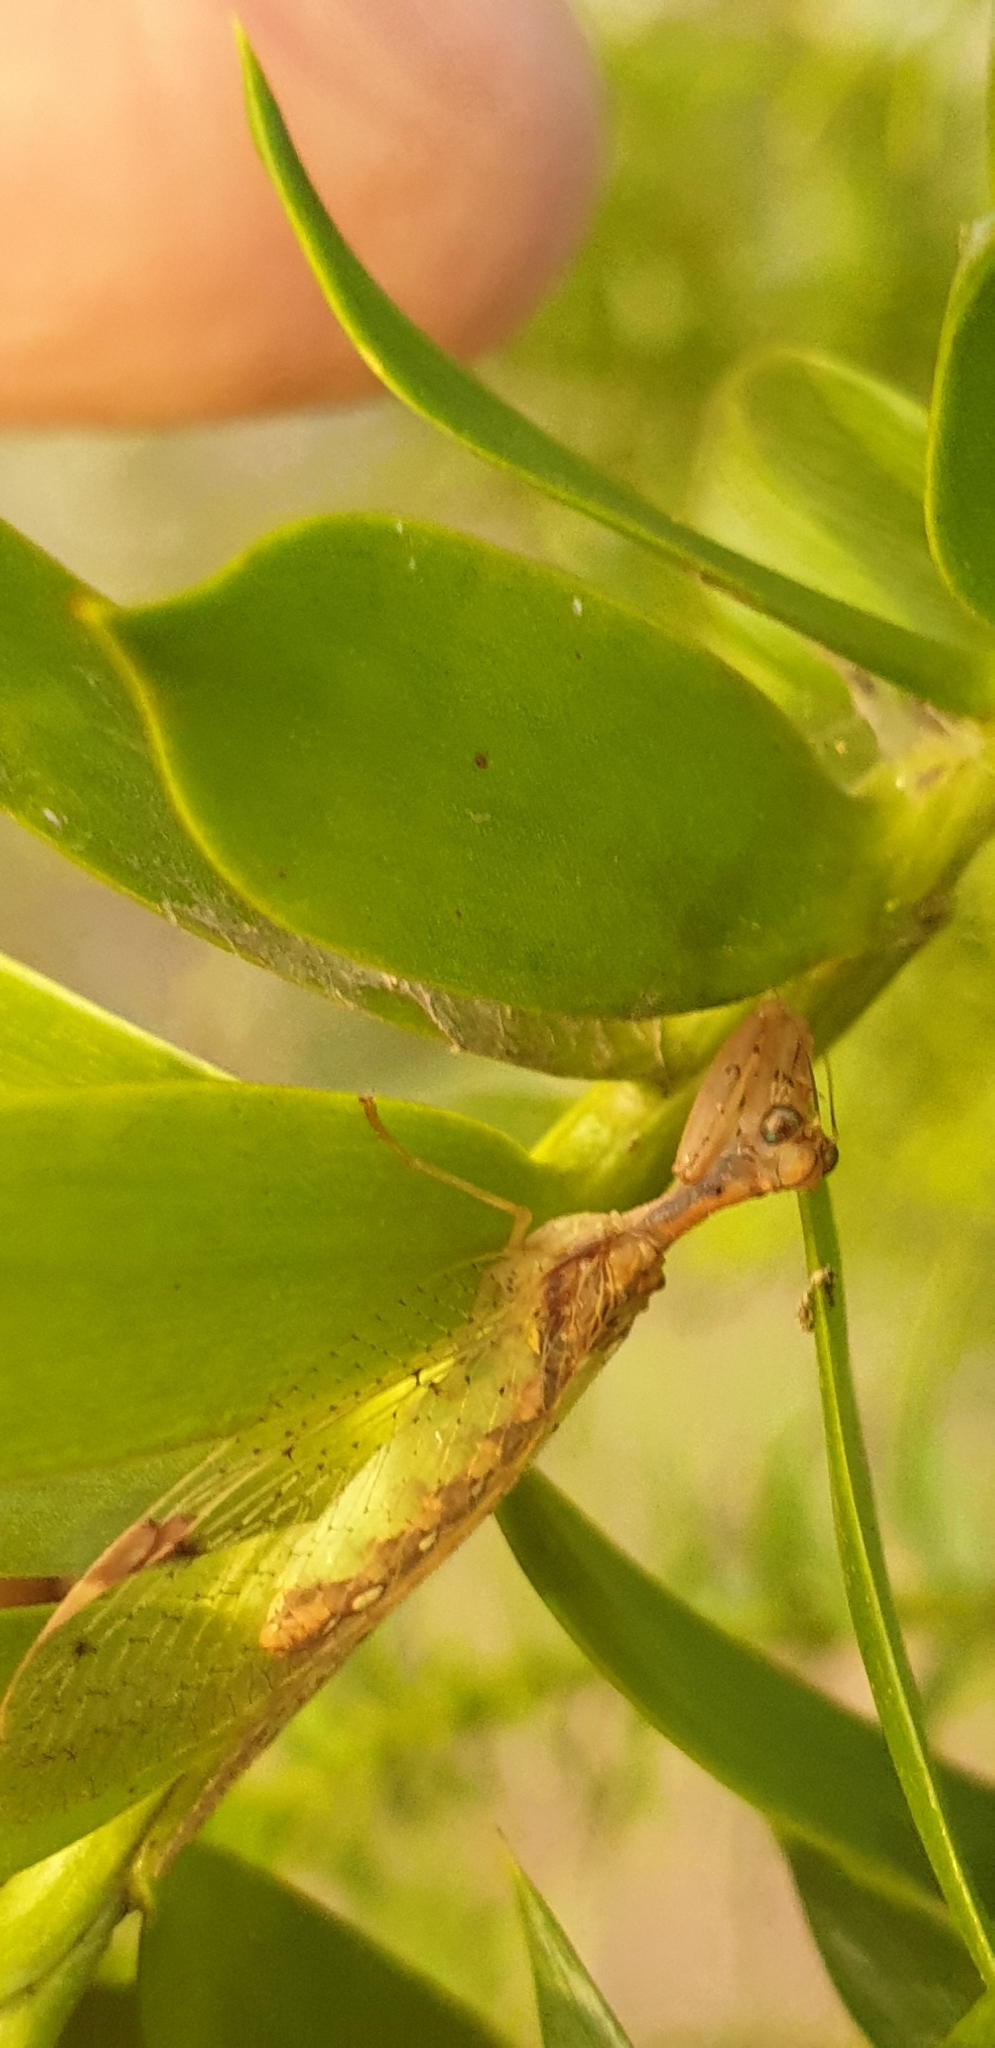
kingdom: Animalia
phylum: Arthropoda
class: Insecta
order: Neuroptera
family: Mantispidae
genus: Ditaxis
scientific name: Ditaxis biseriata
